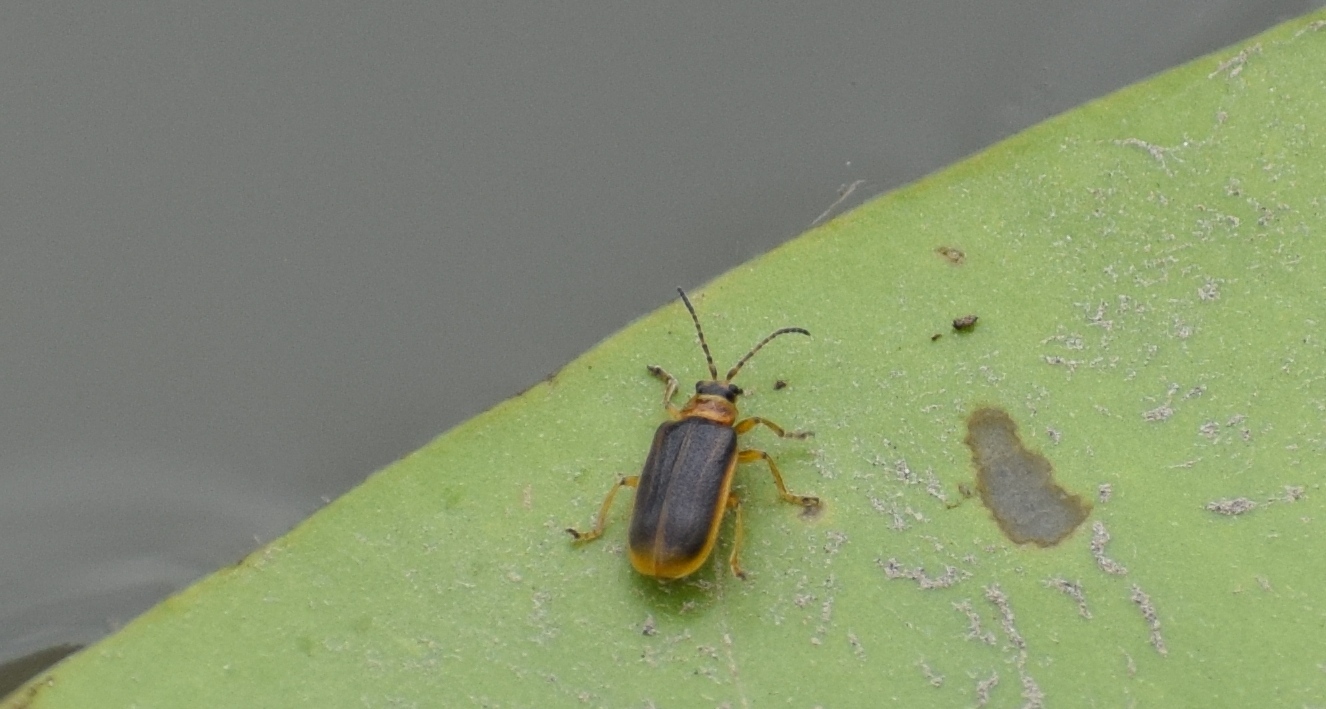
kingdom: Animalia
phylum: Arthropoda
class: Insecta
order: Coleoptera
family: Chrysomelidae
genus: Galerucella
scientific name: Galerucella nymphaeae
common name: Leaf beetle
